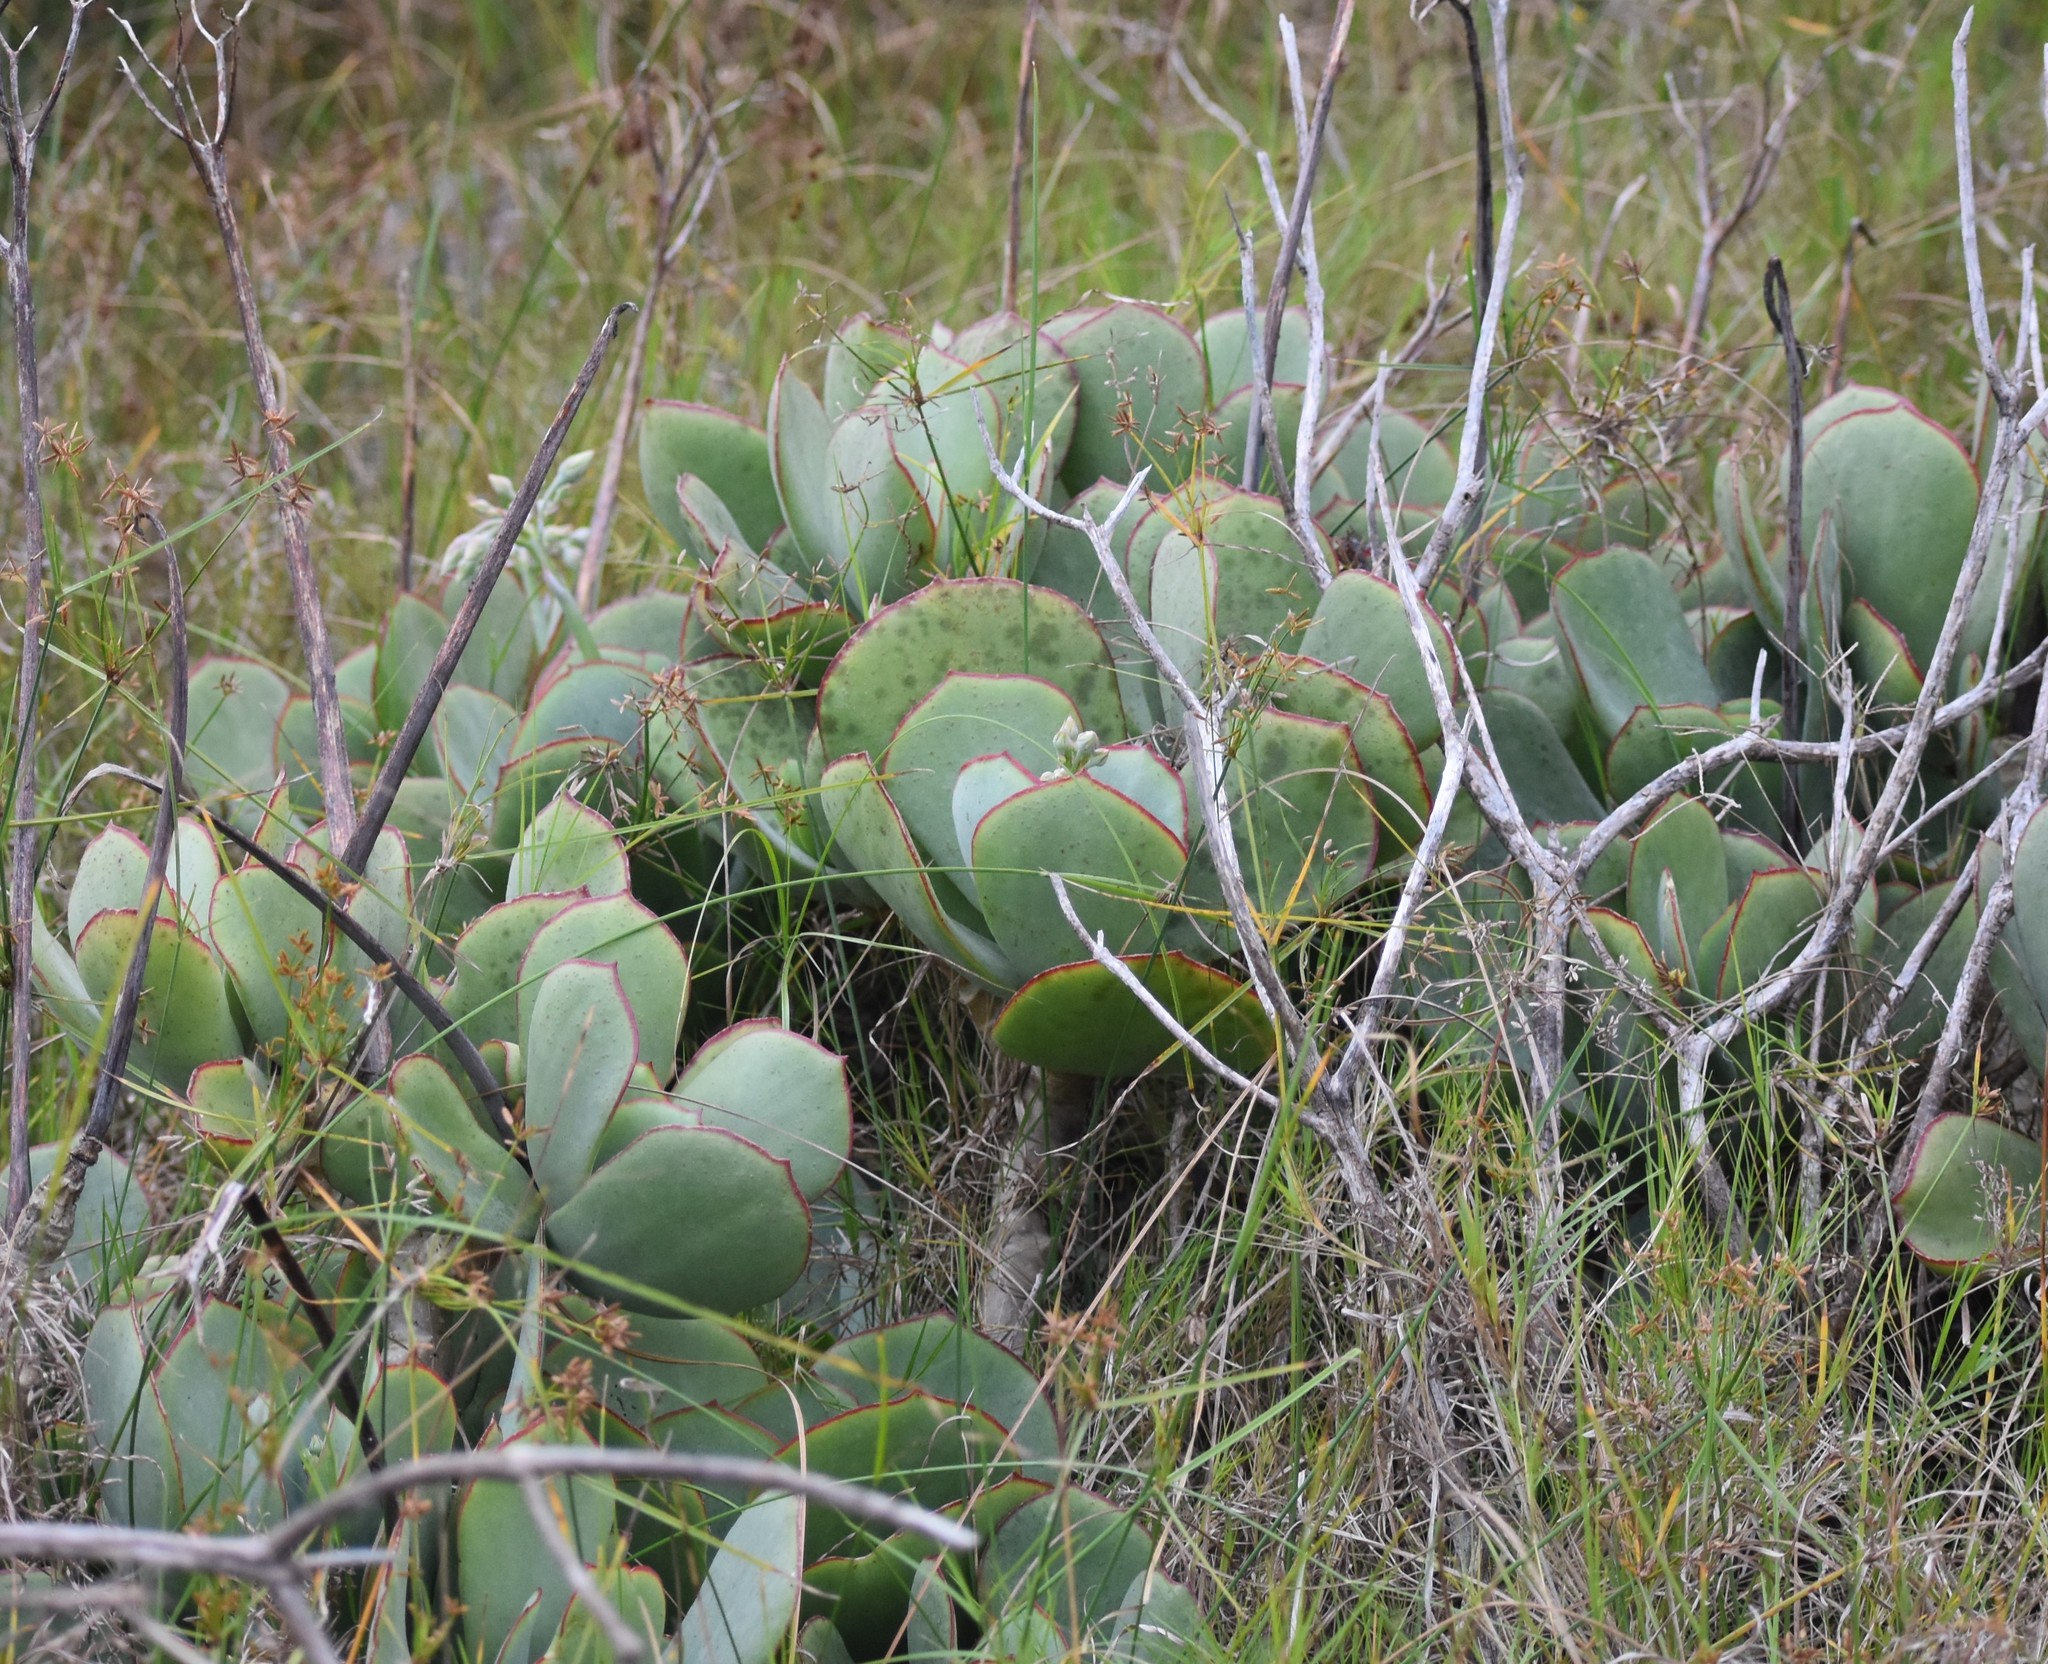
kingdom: Plantae
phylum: Tracheophyta
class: Magnoliopsida
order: Saxifragales
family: Crassulaceae
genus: Cotyledon
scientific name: Cotyledon orbiculata
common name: Pig's ear
